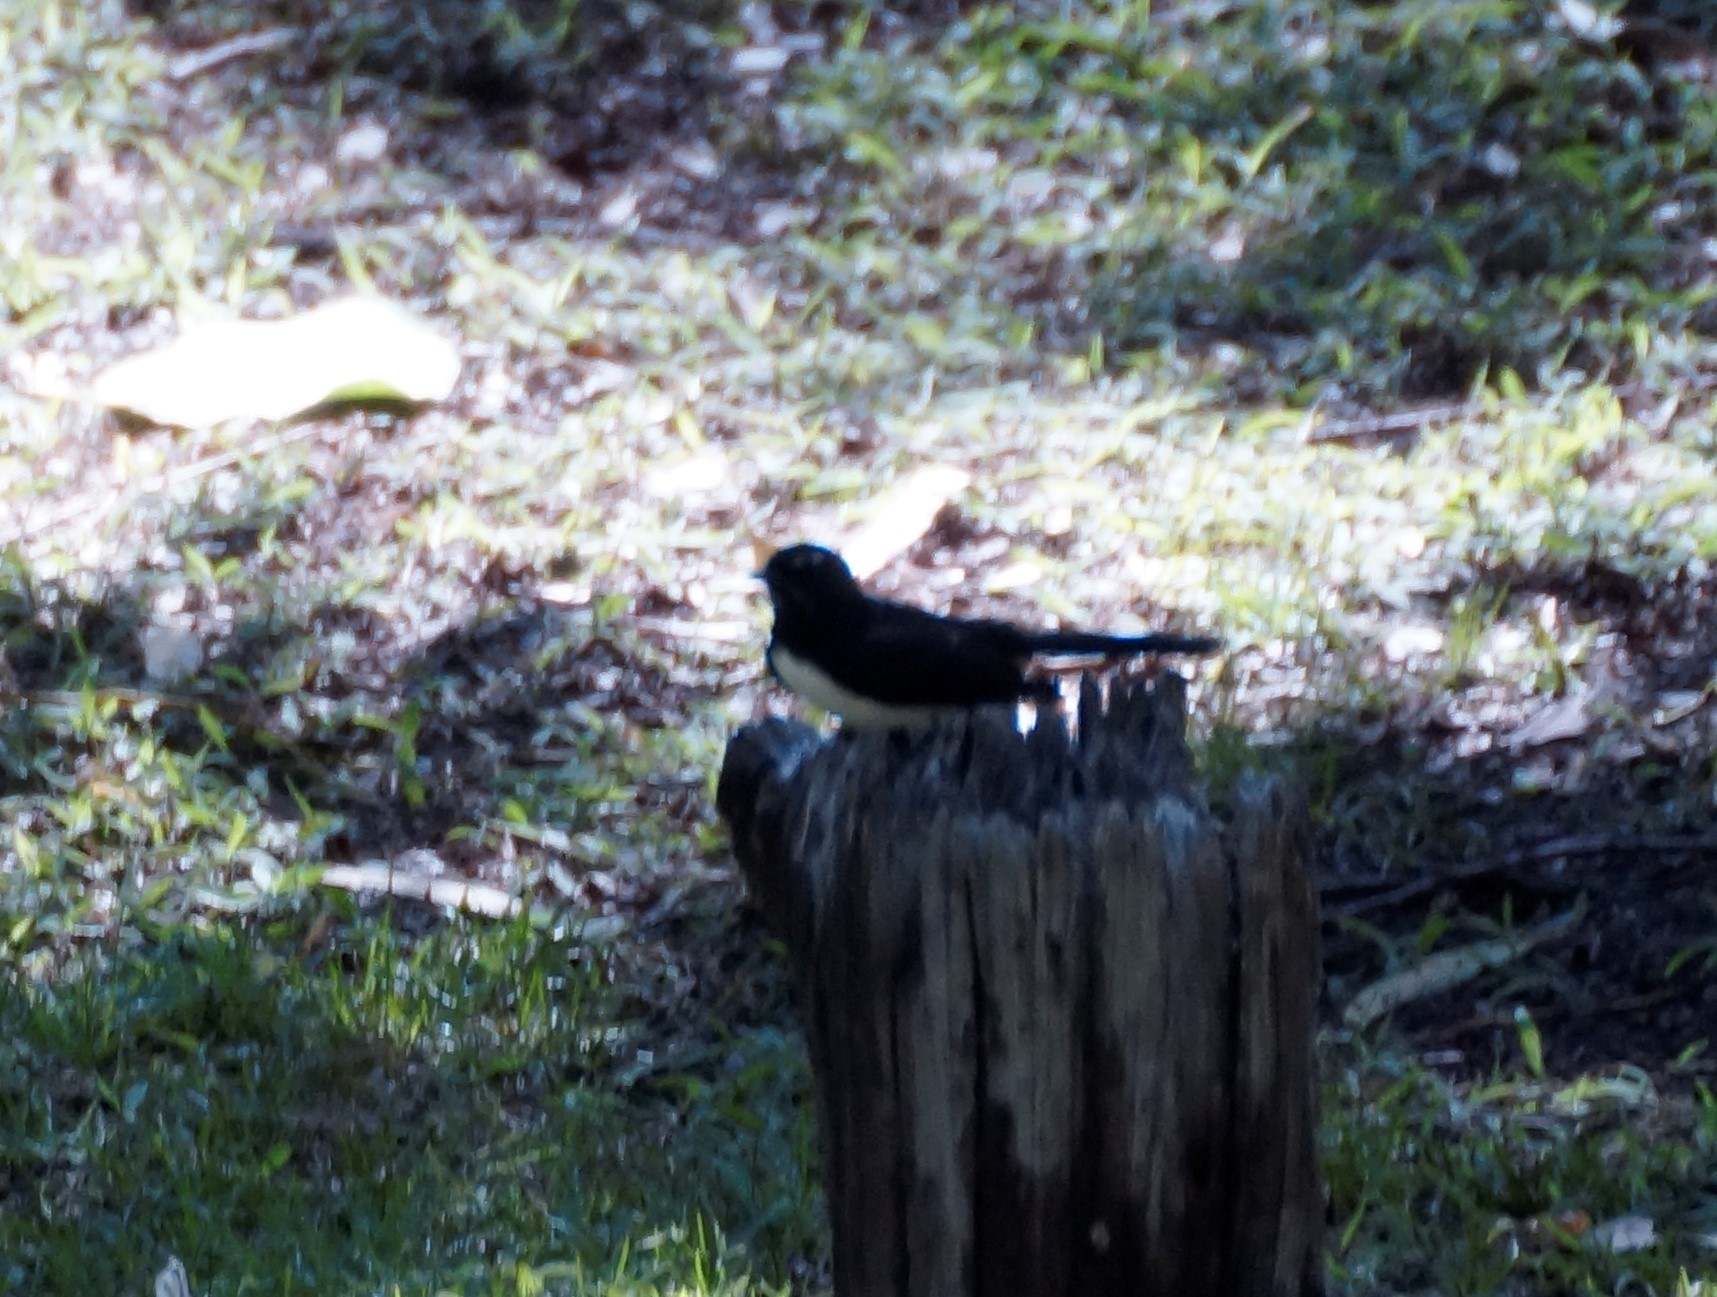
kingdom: Animalia
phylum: Chordata
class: Aves
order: Passeriformes
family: Rhipiduridae
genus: Rhipidura
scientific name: Rhipidura leucophrys
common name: Willie wagtail
